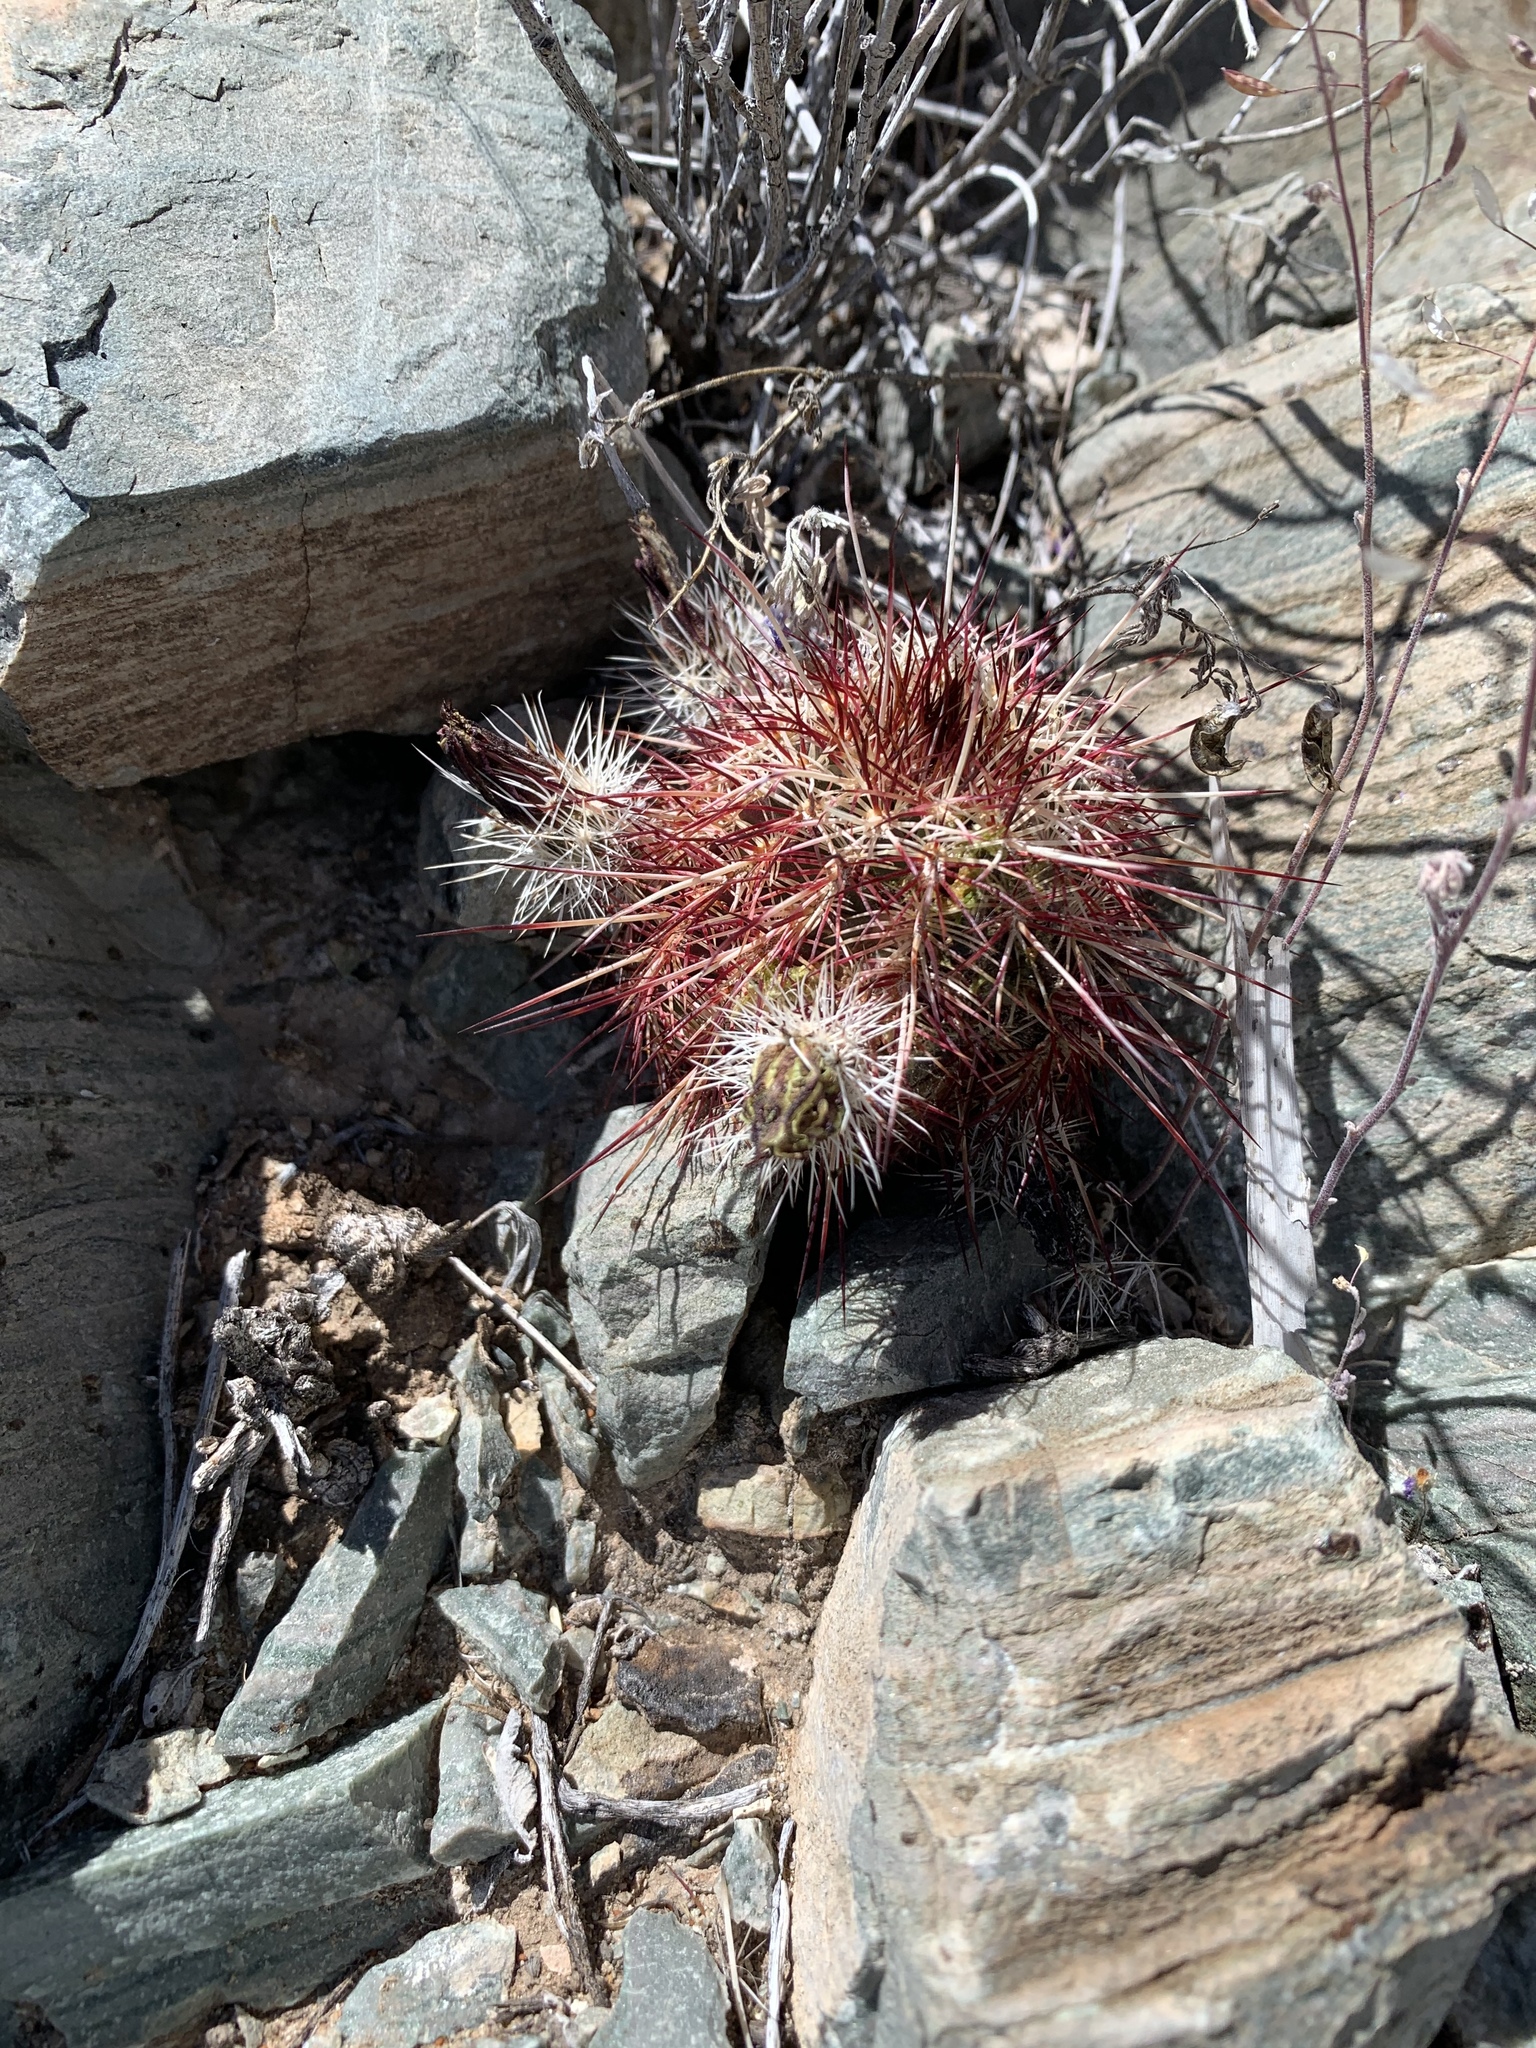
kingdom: Plantae
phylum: Tracheophyta
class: Magnoliopsida
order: Caryophyllales
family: Cactaceae
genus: Echinocereus
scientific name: Echinocereus viridiflorus
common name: Nylon hedgehog cactus
